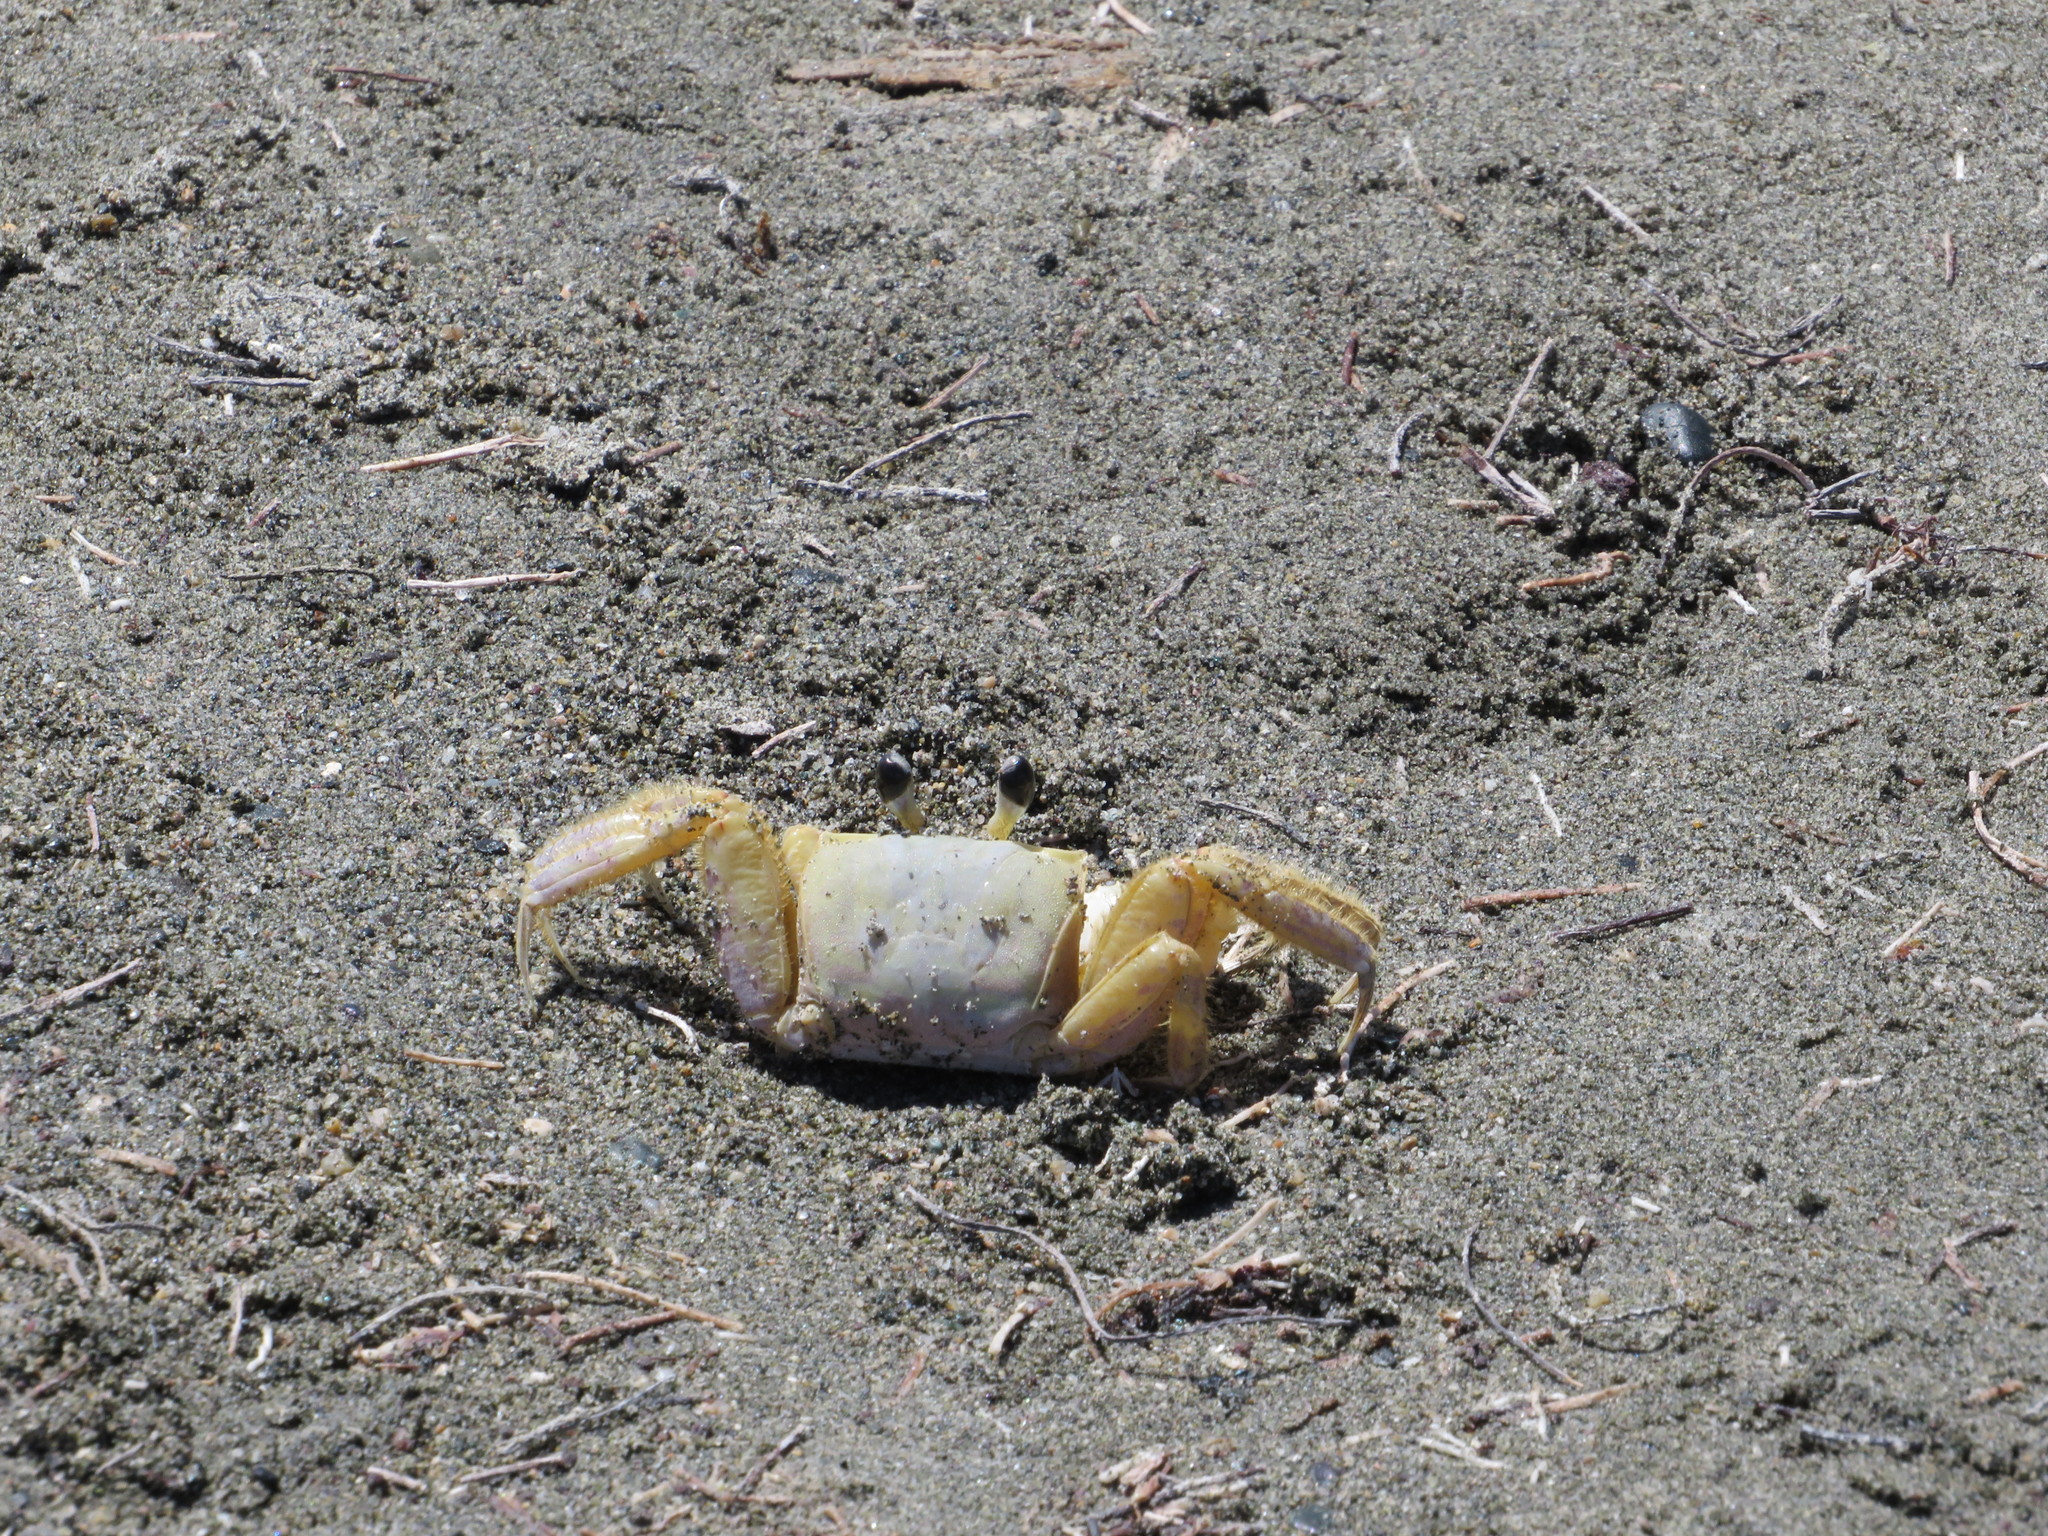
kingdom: Animalia
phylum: Arthropoda
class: Malacostraca
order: Decapoda
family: Ocypodidae
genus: Ocypode
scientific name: Ocypode quadrata
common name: Ghost crab
